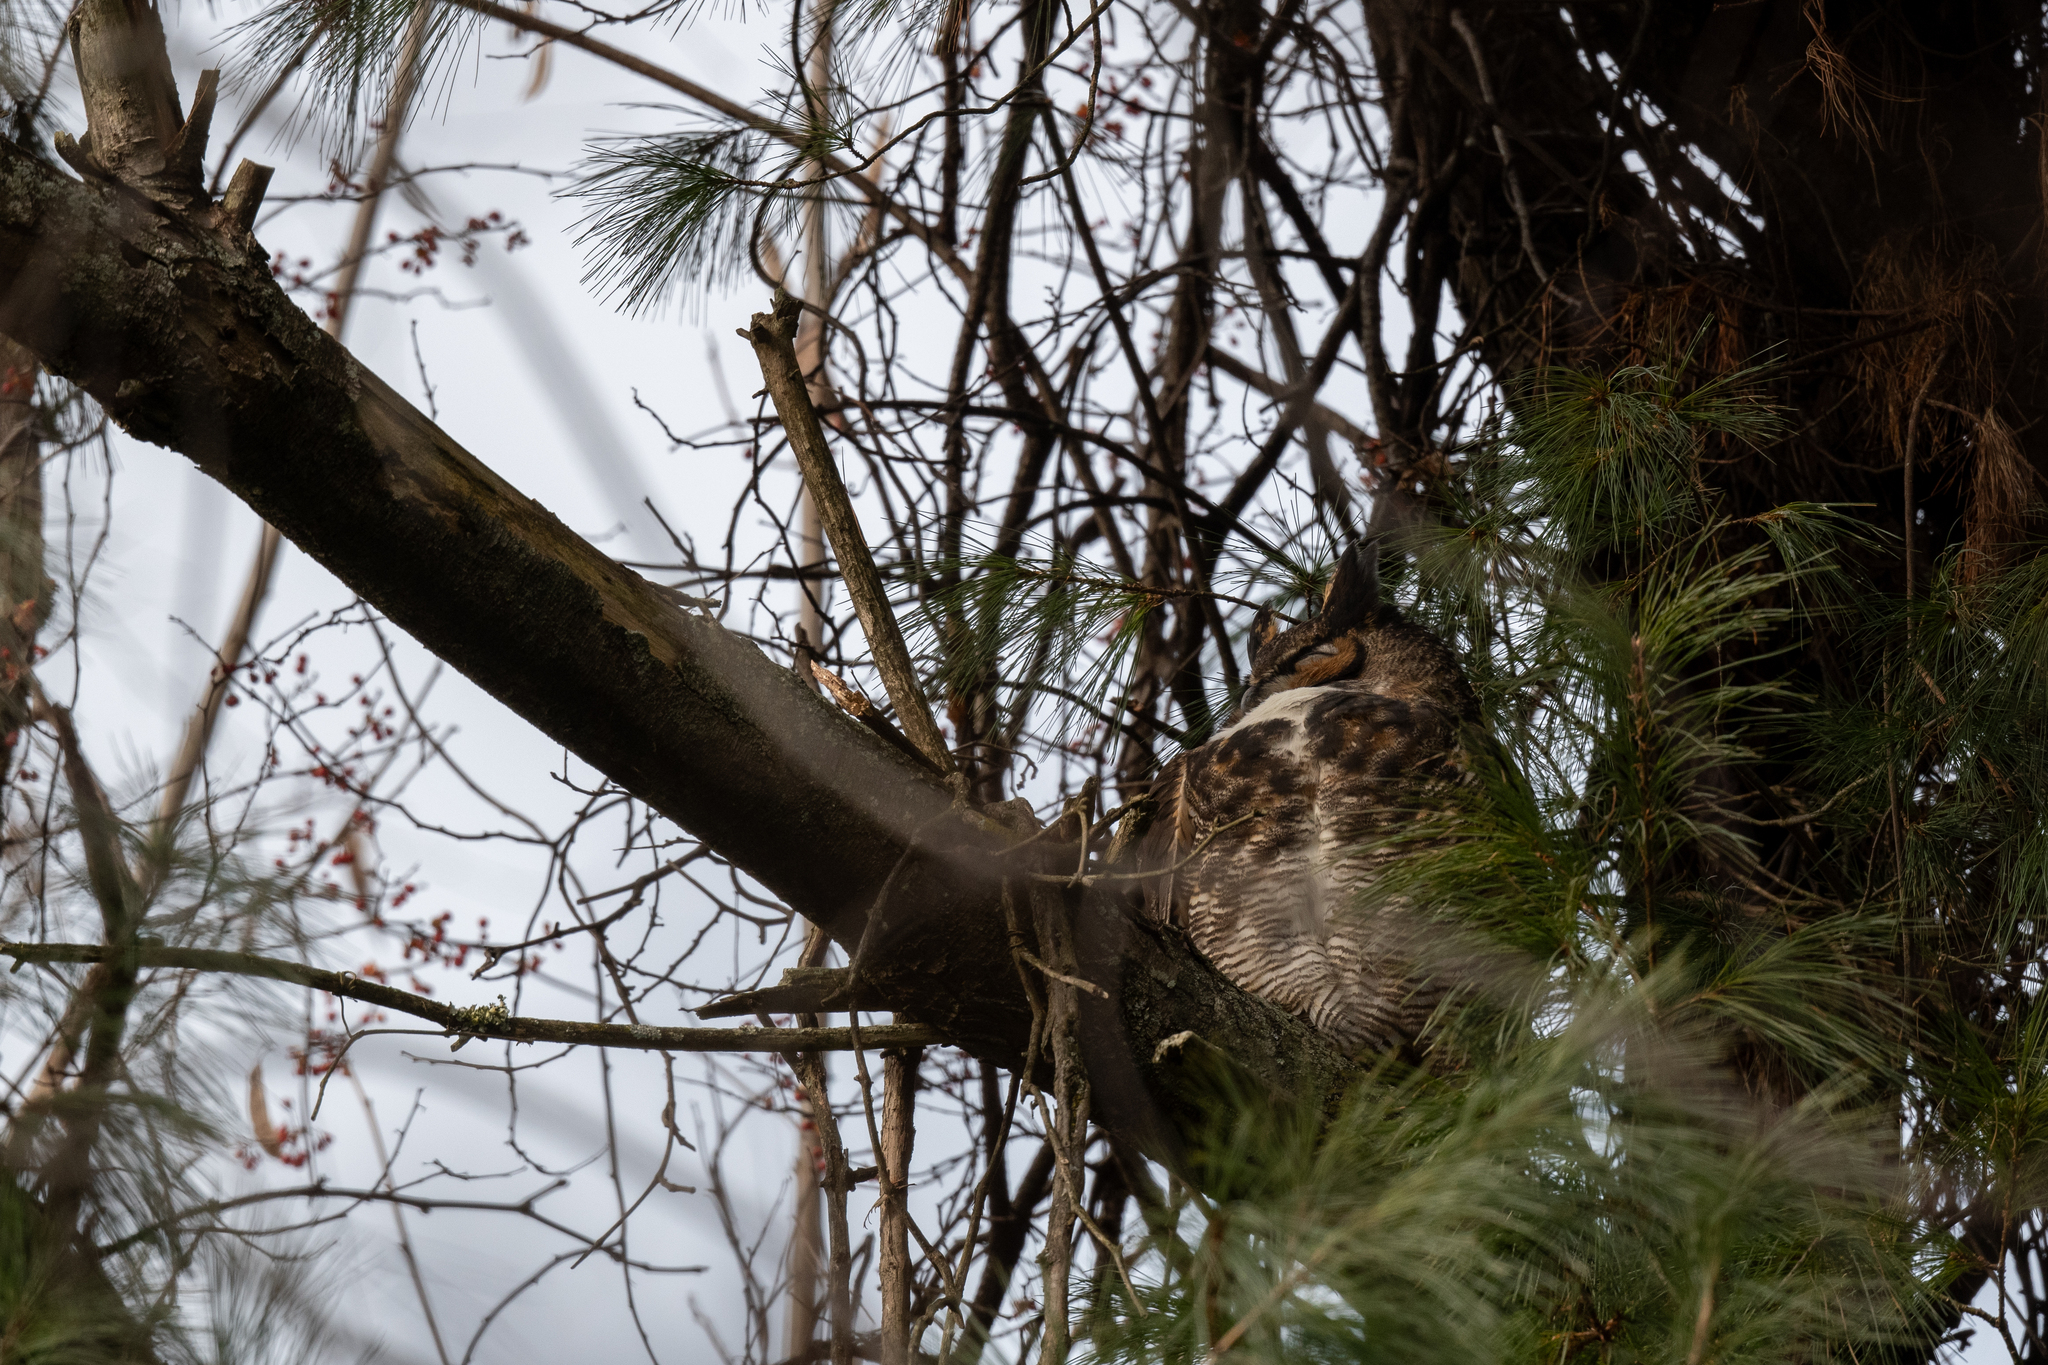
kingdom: Animalia
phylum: Chordata
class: Aves
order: Strigiformes
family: Strigidae
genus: Bubo
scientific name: Bubo virginianus
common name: Great horned owl
